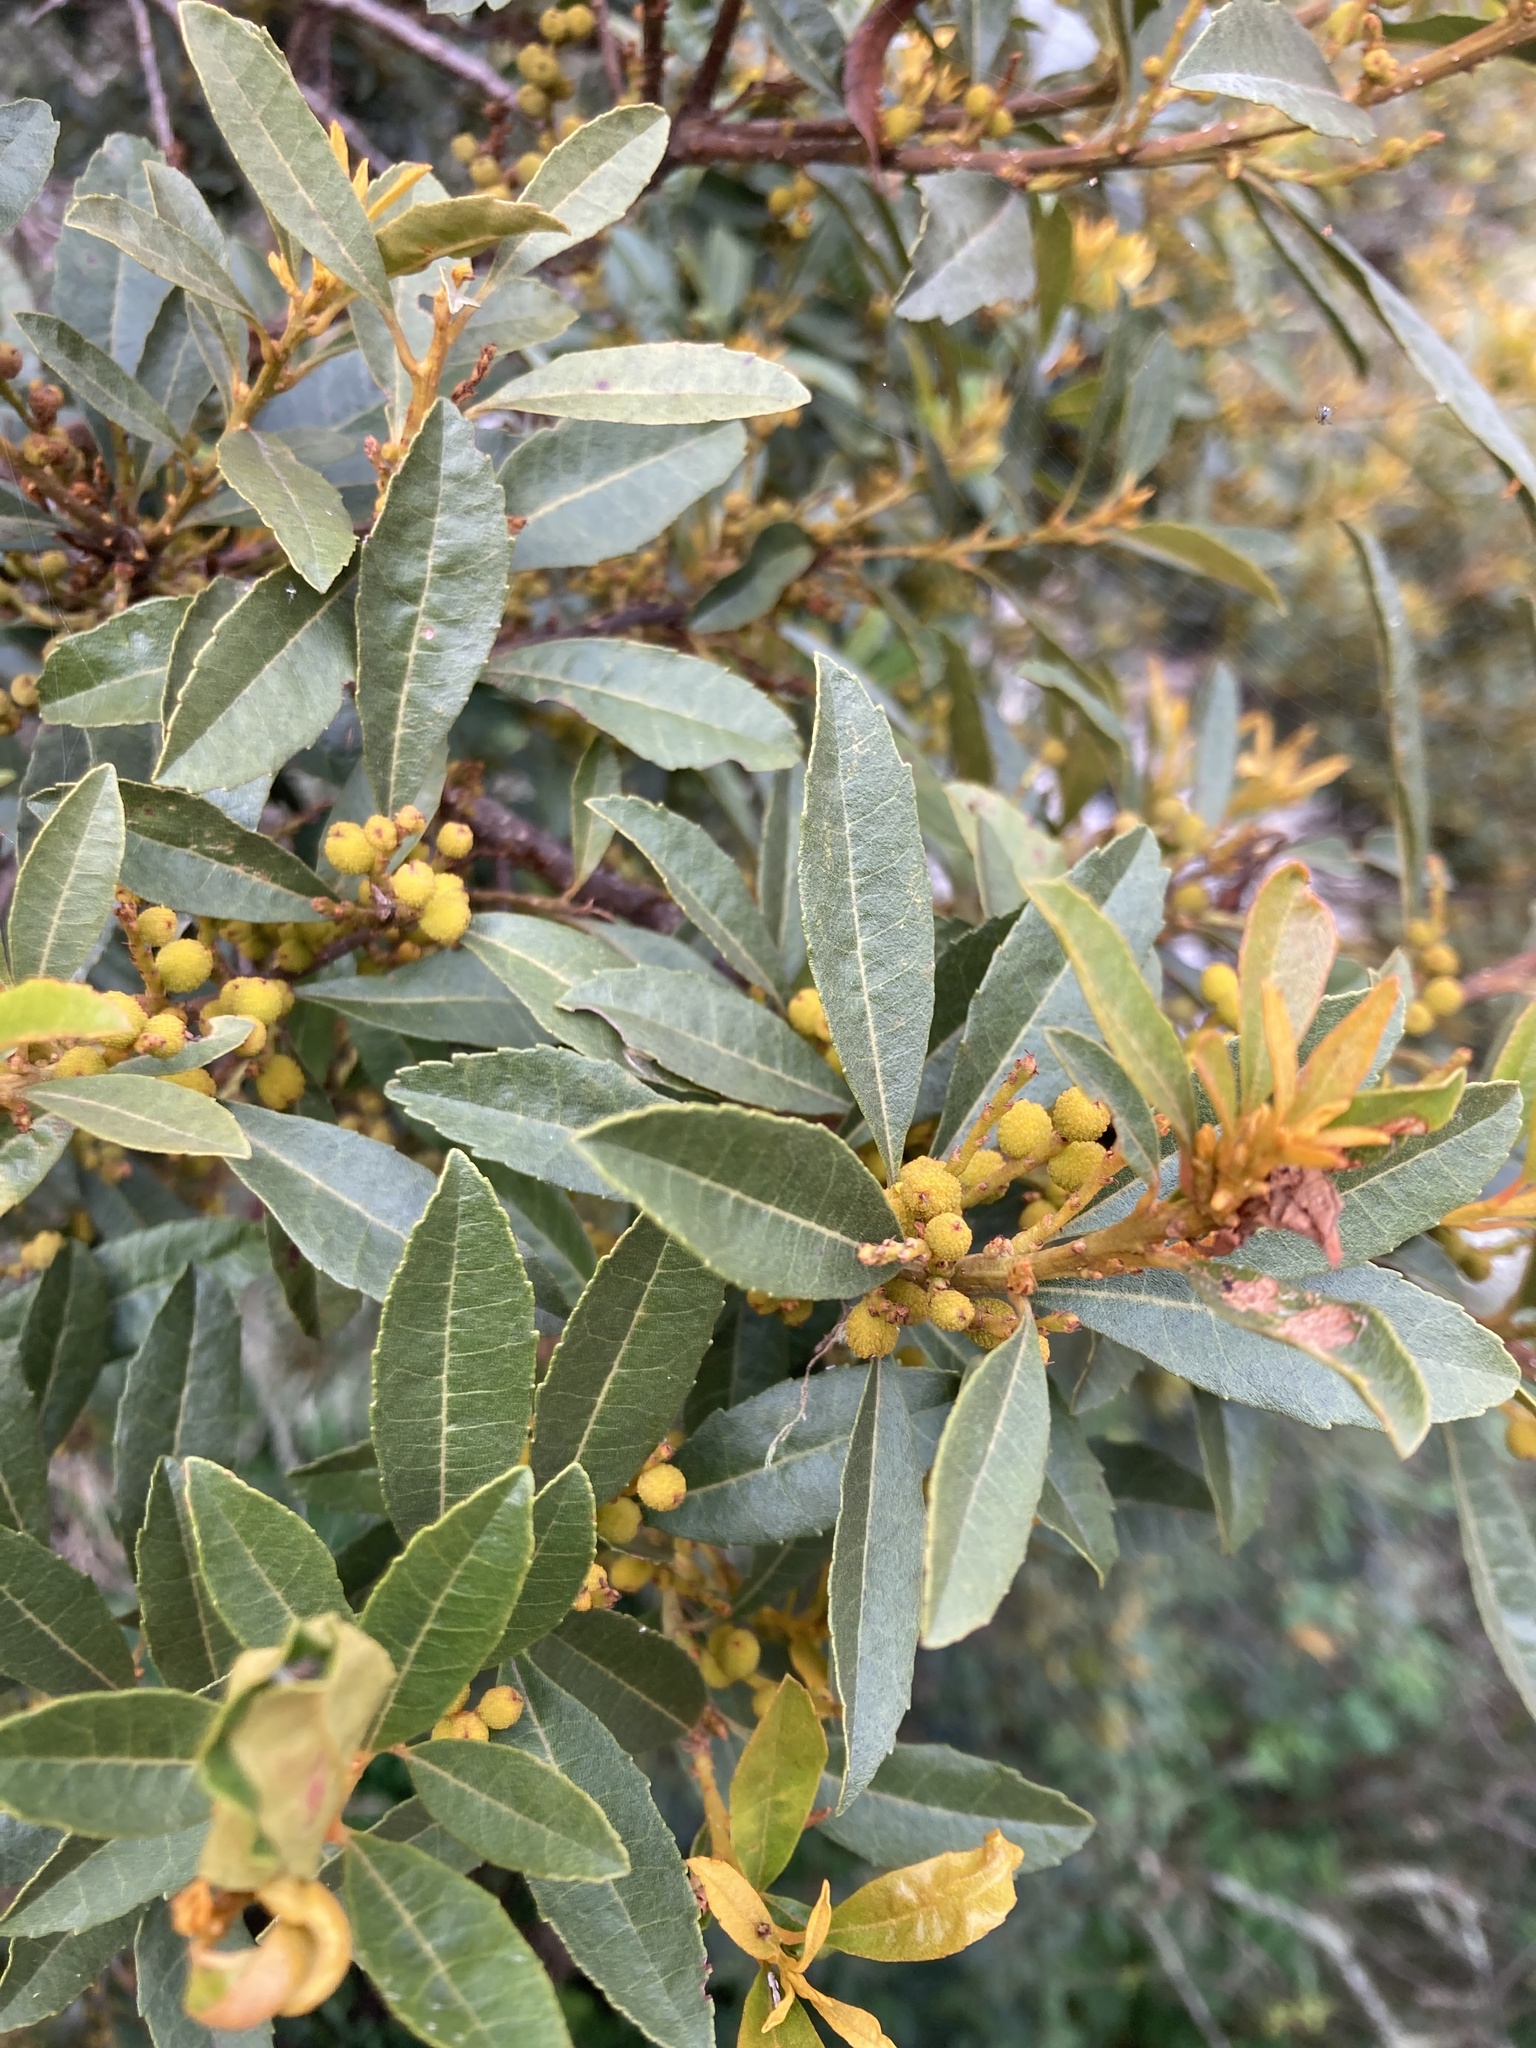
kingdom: Plantae
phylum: Tracheophyta
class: Magnoliopsida
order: Fagales
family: Myricaceae
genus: Morella
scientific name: Morella parvifolia
